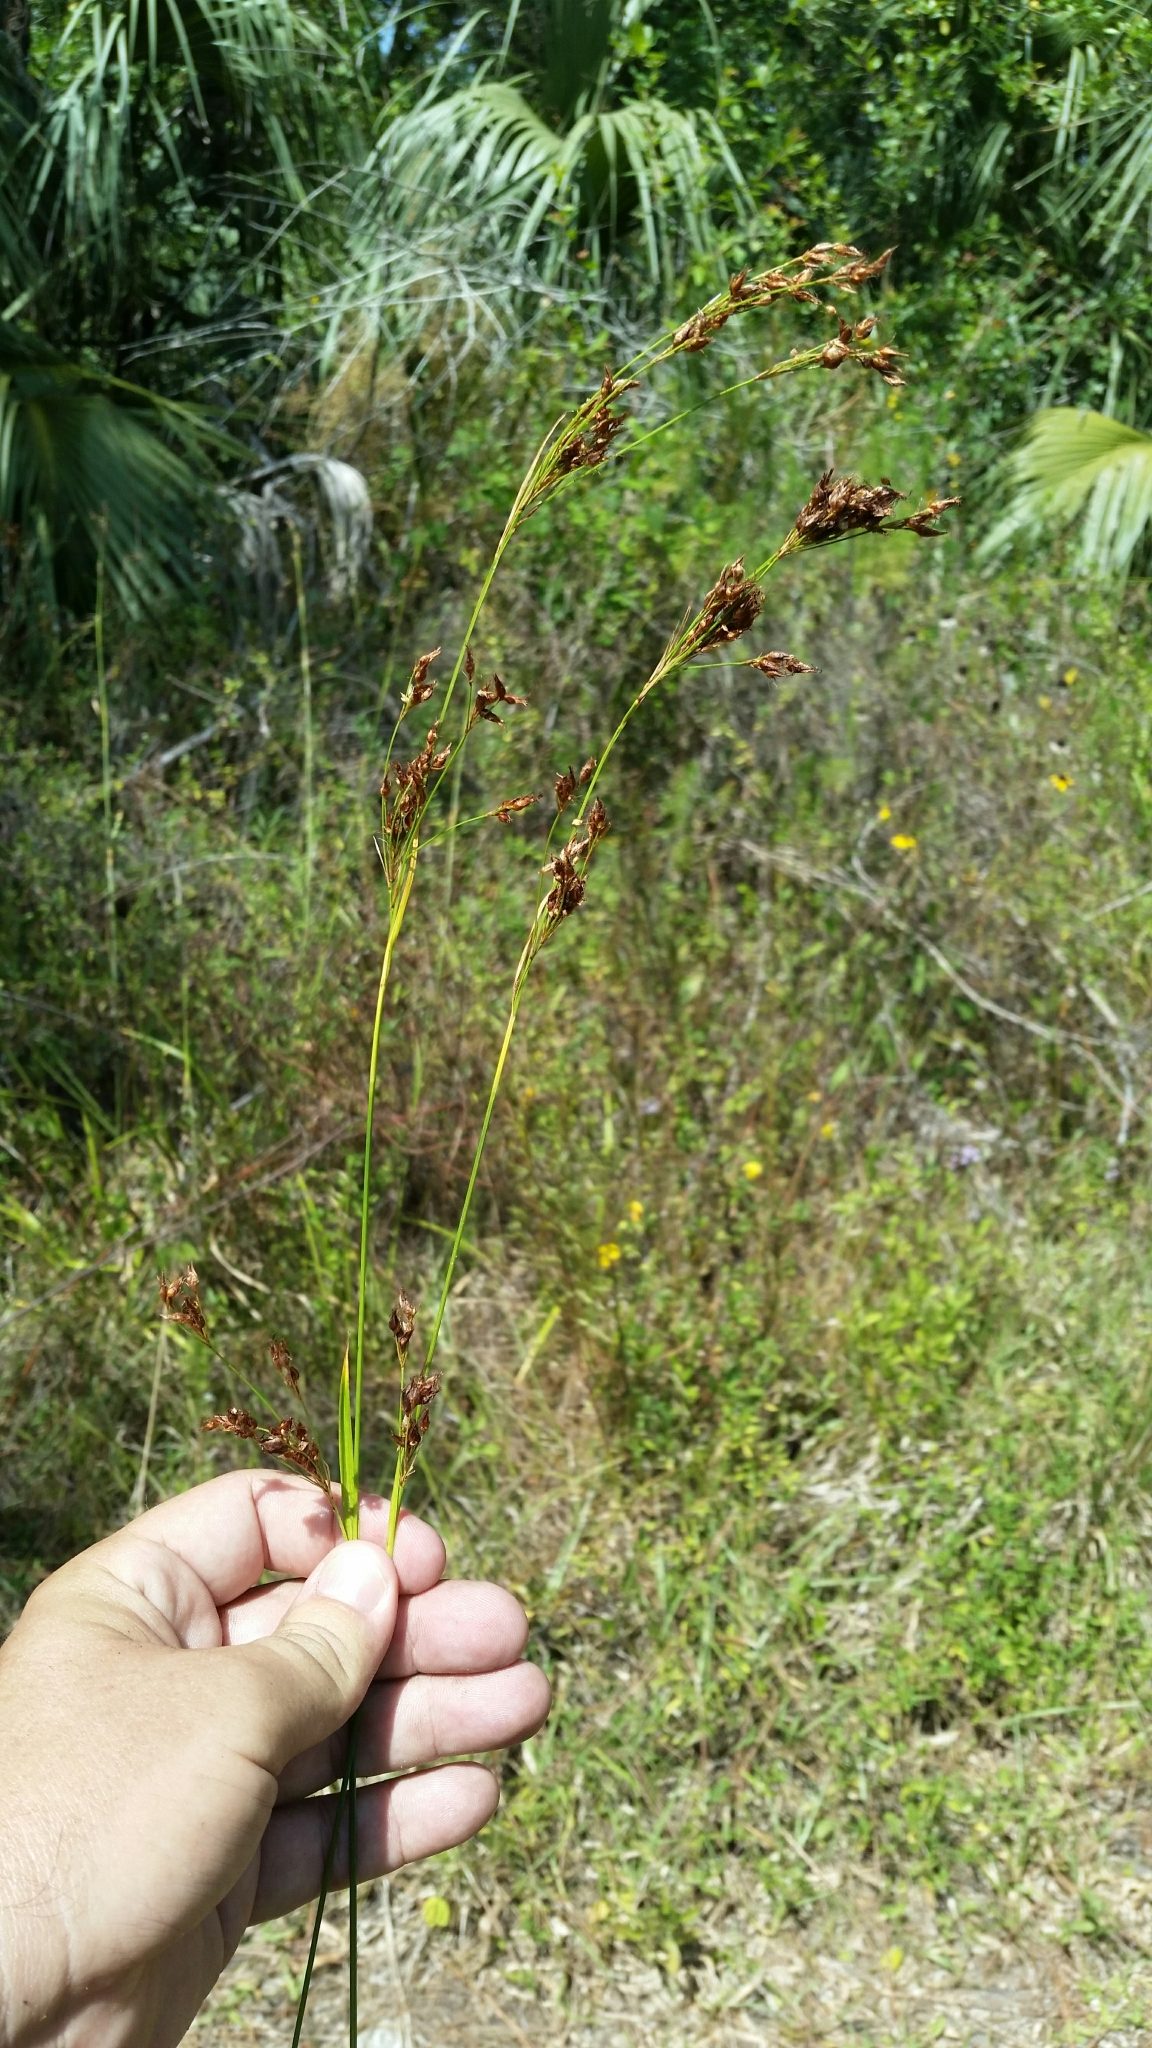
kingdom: Plantae
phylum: Tracheophyta
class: Liliopsida
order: Poales
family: Cyperaceae
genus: Rhynchospora
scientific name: Rhynchospora odorata
